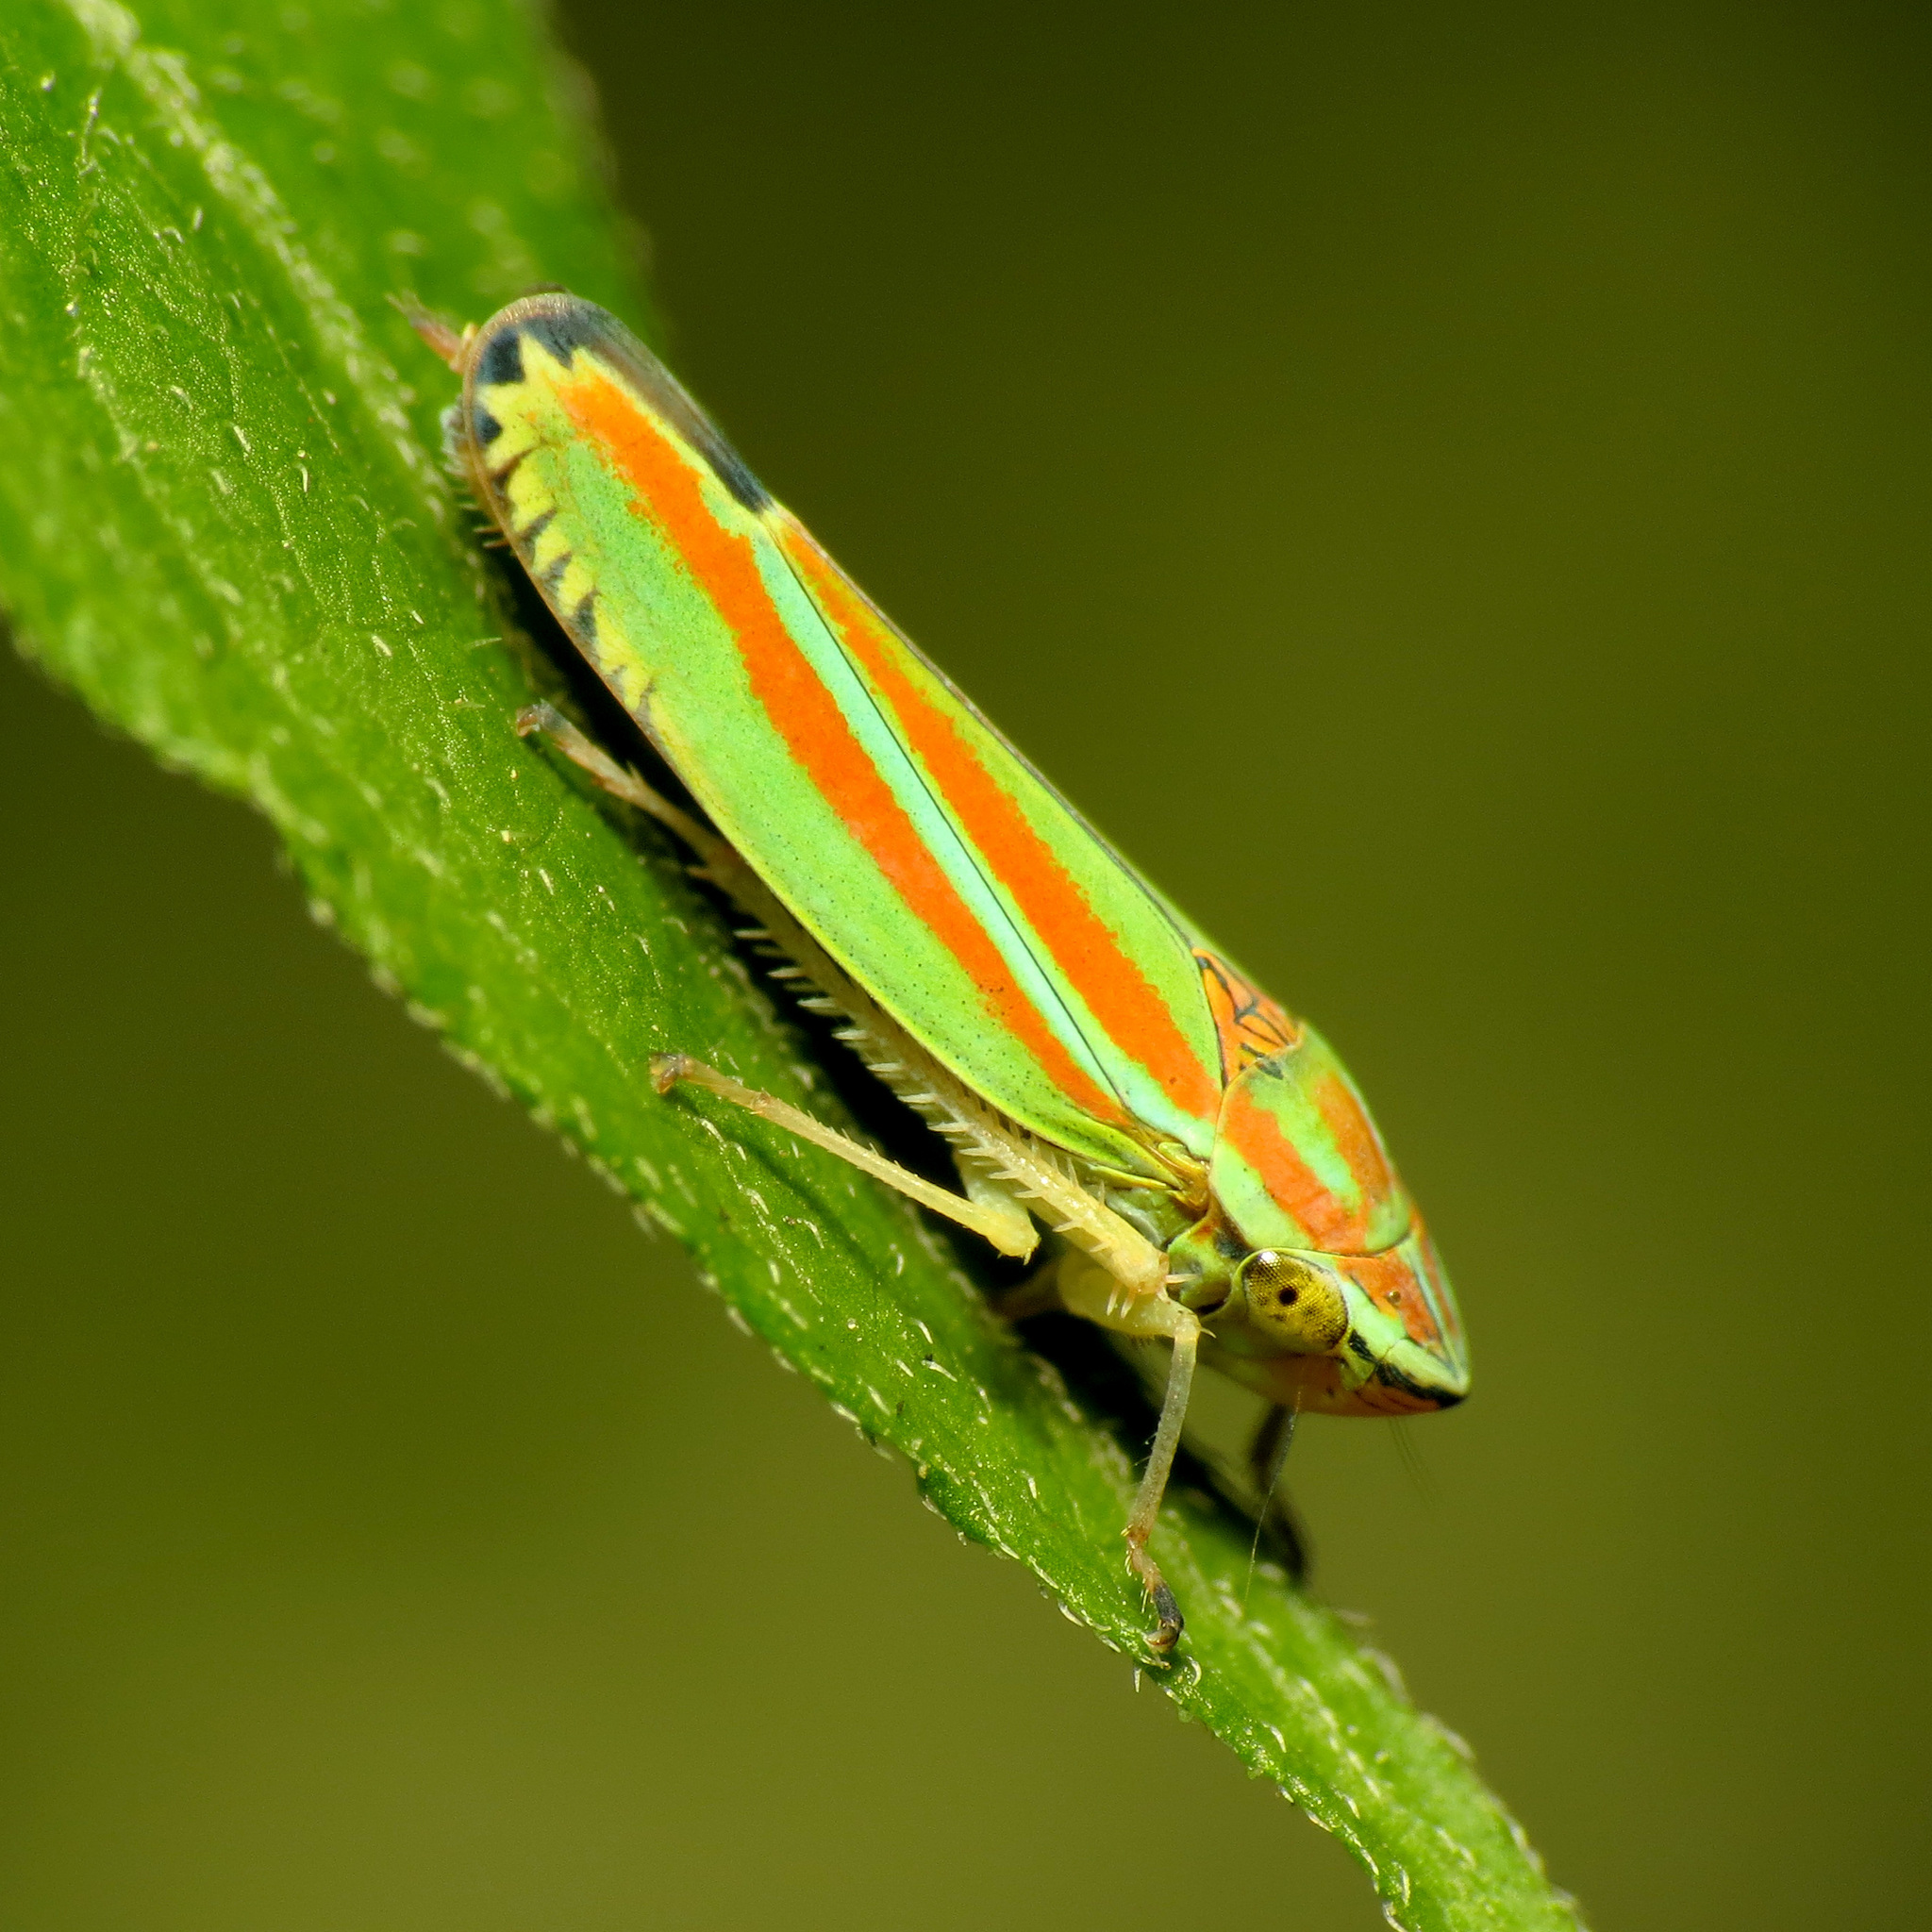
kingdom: Animalia
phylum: Arthropoda
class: Insecta
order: Hemiptera
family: Cicadellidae
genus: Graphocephala
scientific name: Graphocephala versuta
